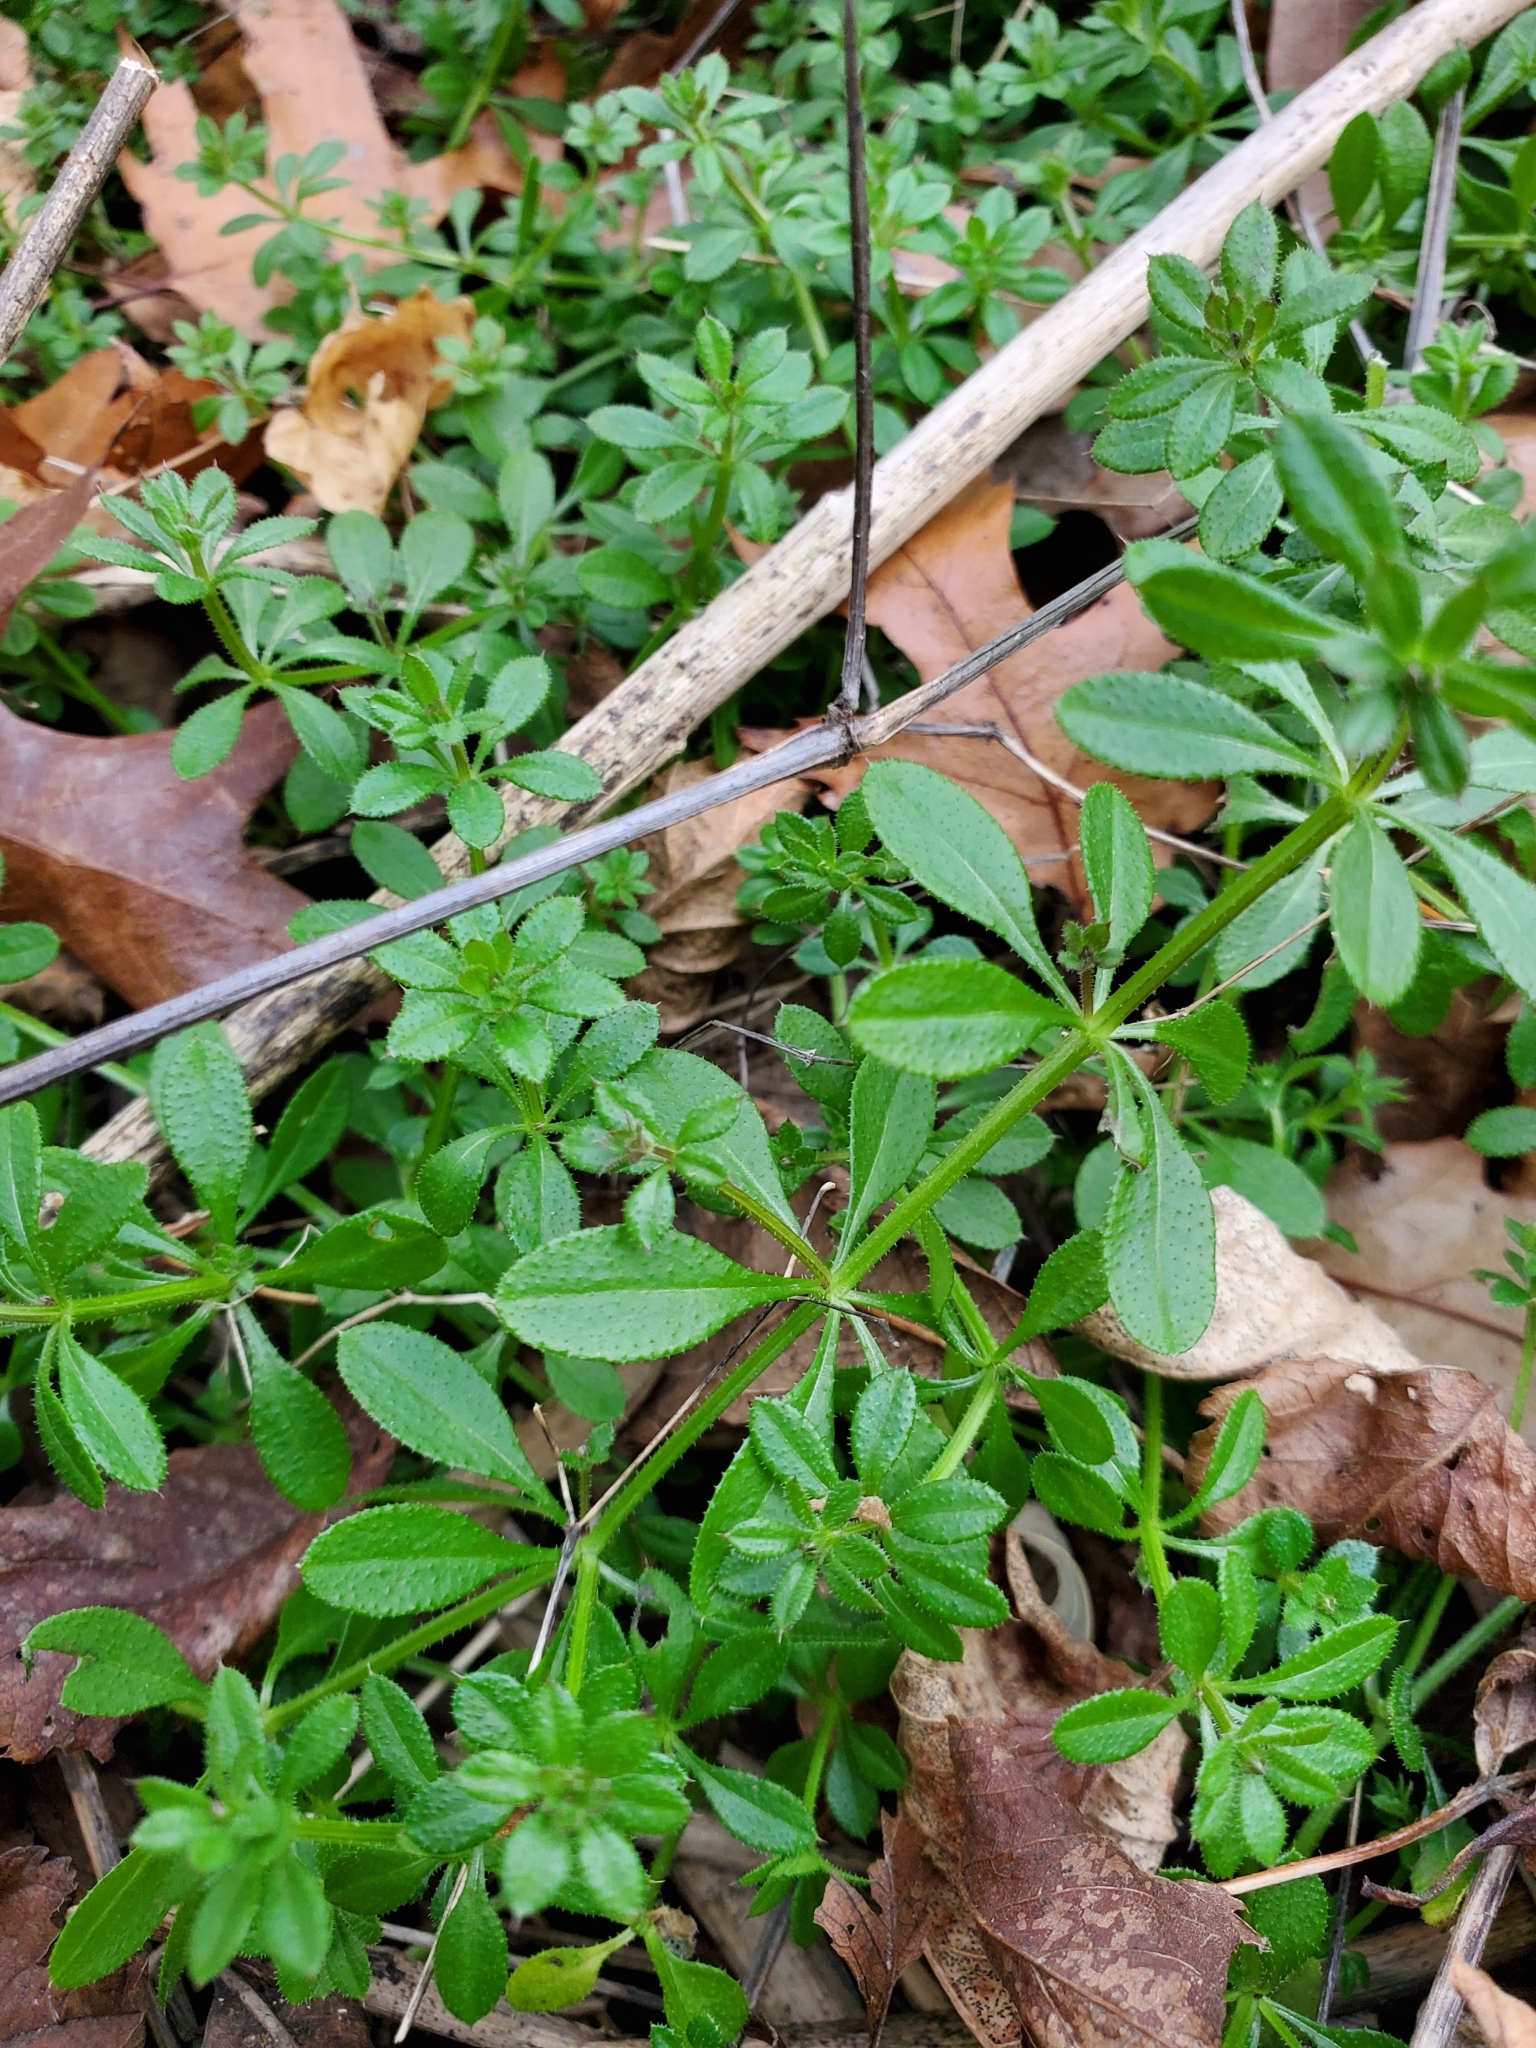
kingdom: Plantae
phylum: Tracheophyta
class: Magnoliopsida
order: Gentianales
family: Rubiaceae
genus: Galium
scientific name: Galium aparine
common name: Cleavers
